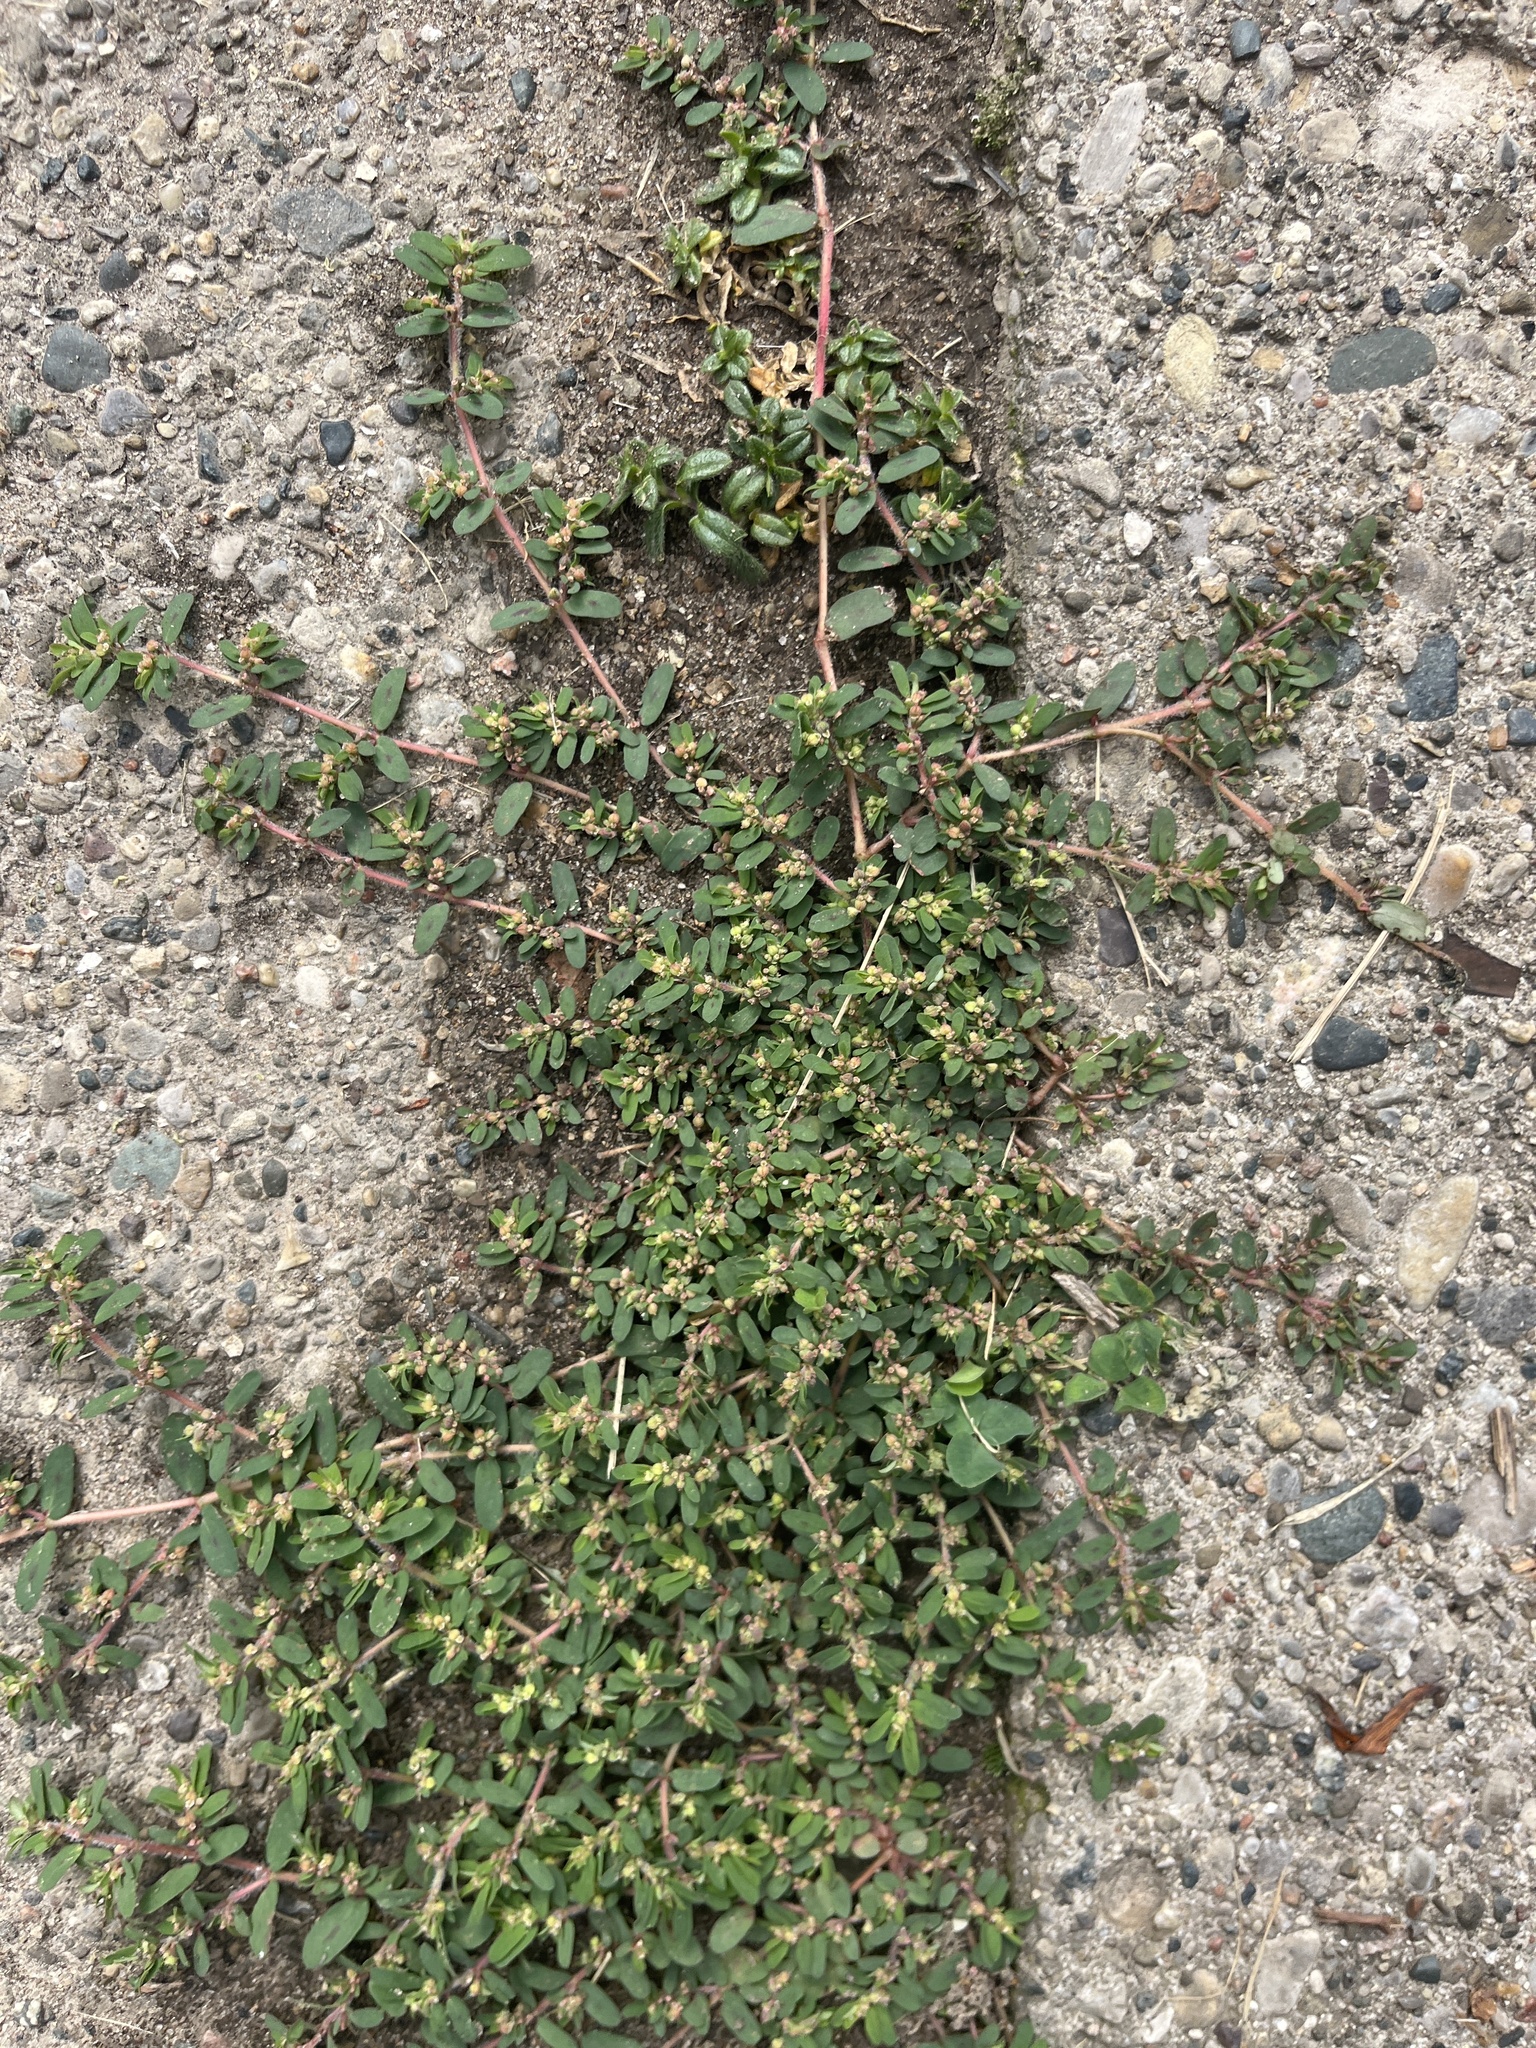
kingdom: Plantae
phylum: Tracheophyta
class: Magnoliopsida
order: Malpighiales
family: Euphorbiaceae
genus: Euphorbia
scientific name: Euphorbia maculata
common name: Spotted spurge
